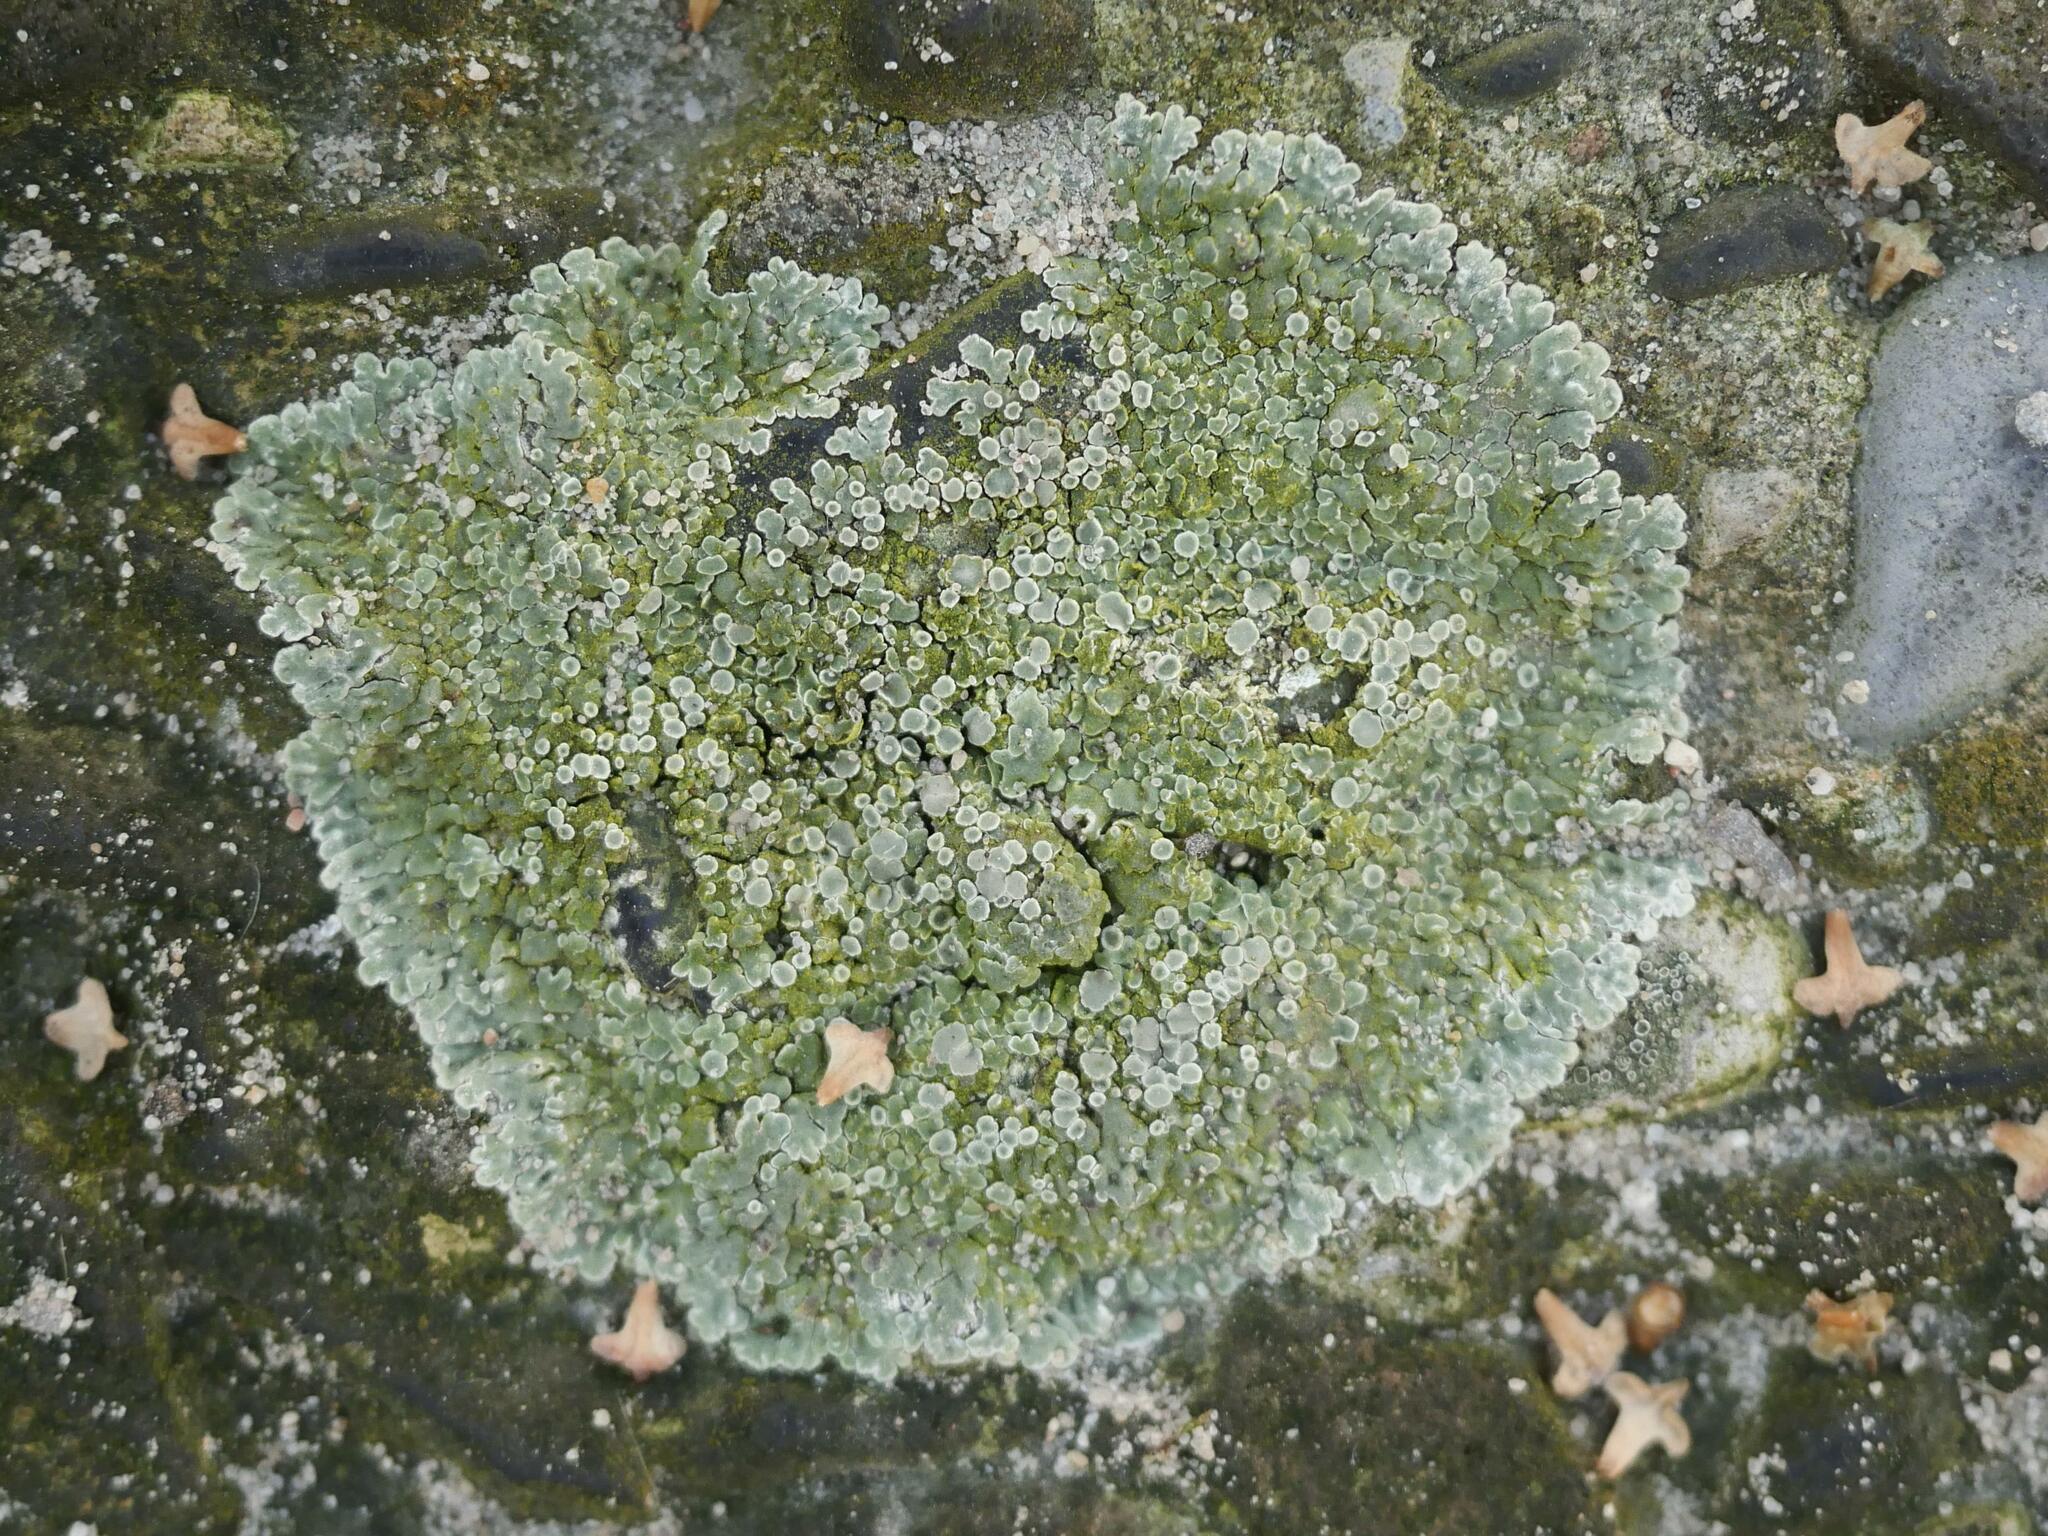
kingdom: Fungi
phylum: Ascomycota
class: Lecanoromycetes
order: Lecanorales
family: Lecanoraceae
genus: Protoparmeliopsis
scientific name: Protoparmeliopsis muralis
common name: Stonewall rim lichen
